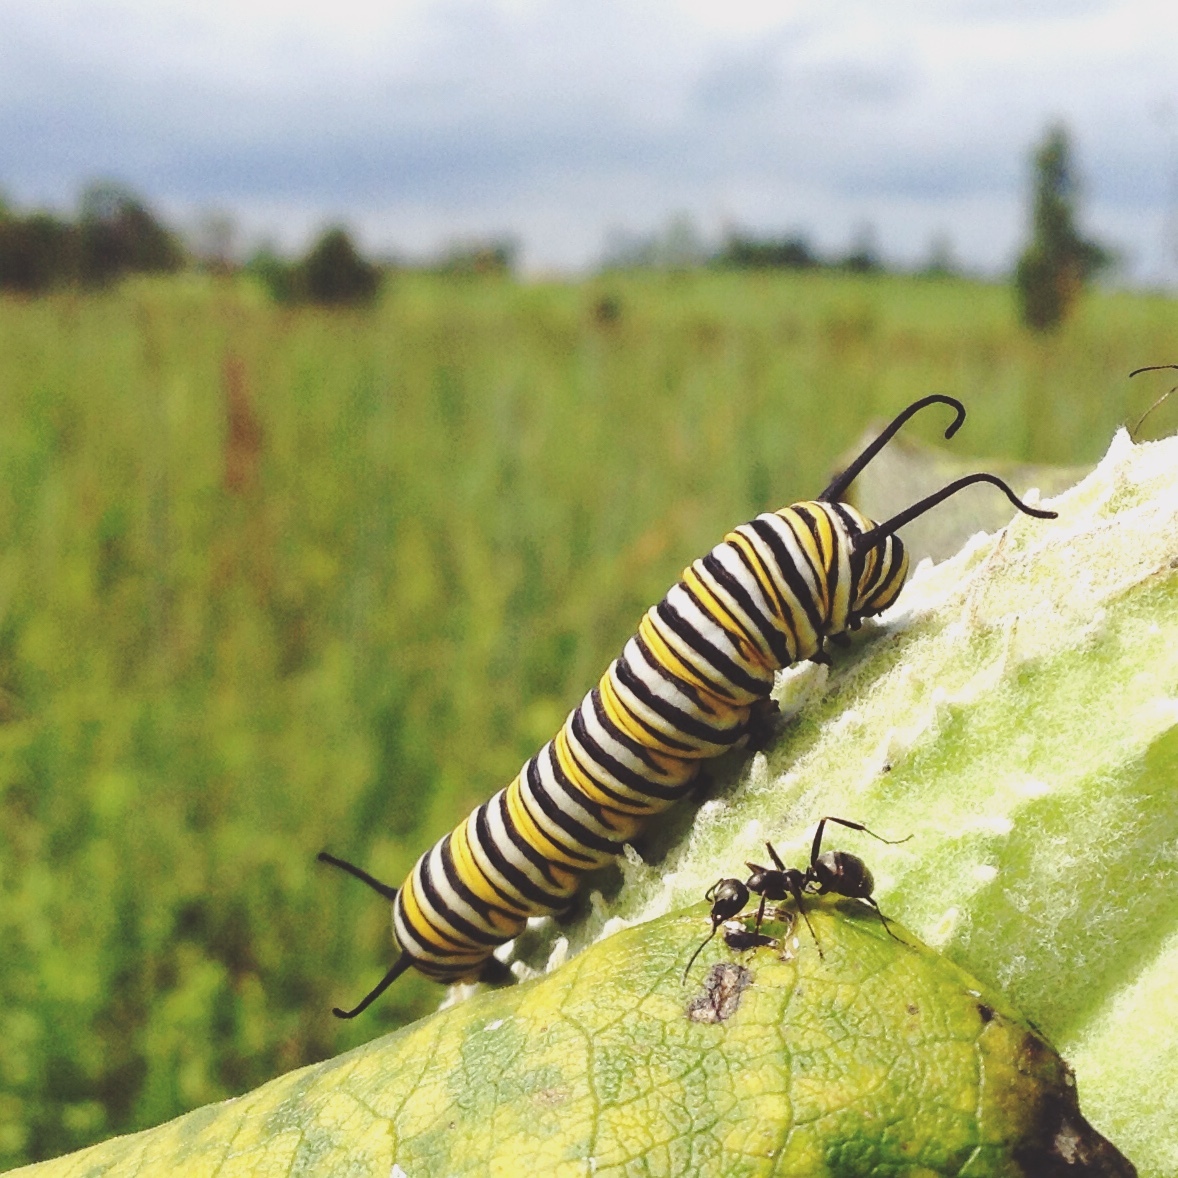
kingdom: Animalia
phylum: Arthropoda
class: Insecta
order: Lepidoptera
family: Nymphalidae
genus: Danaus
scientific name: Danaus plexippus
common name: Monarch
